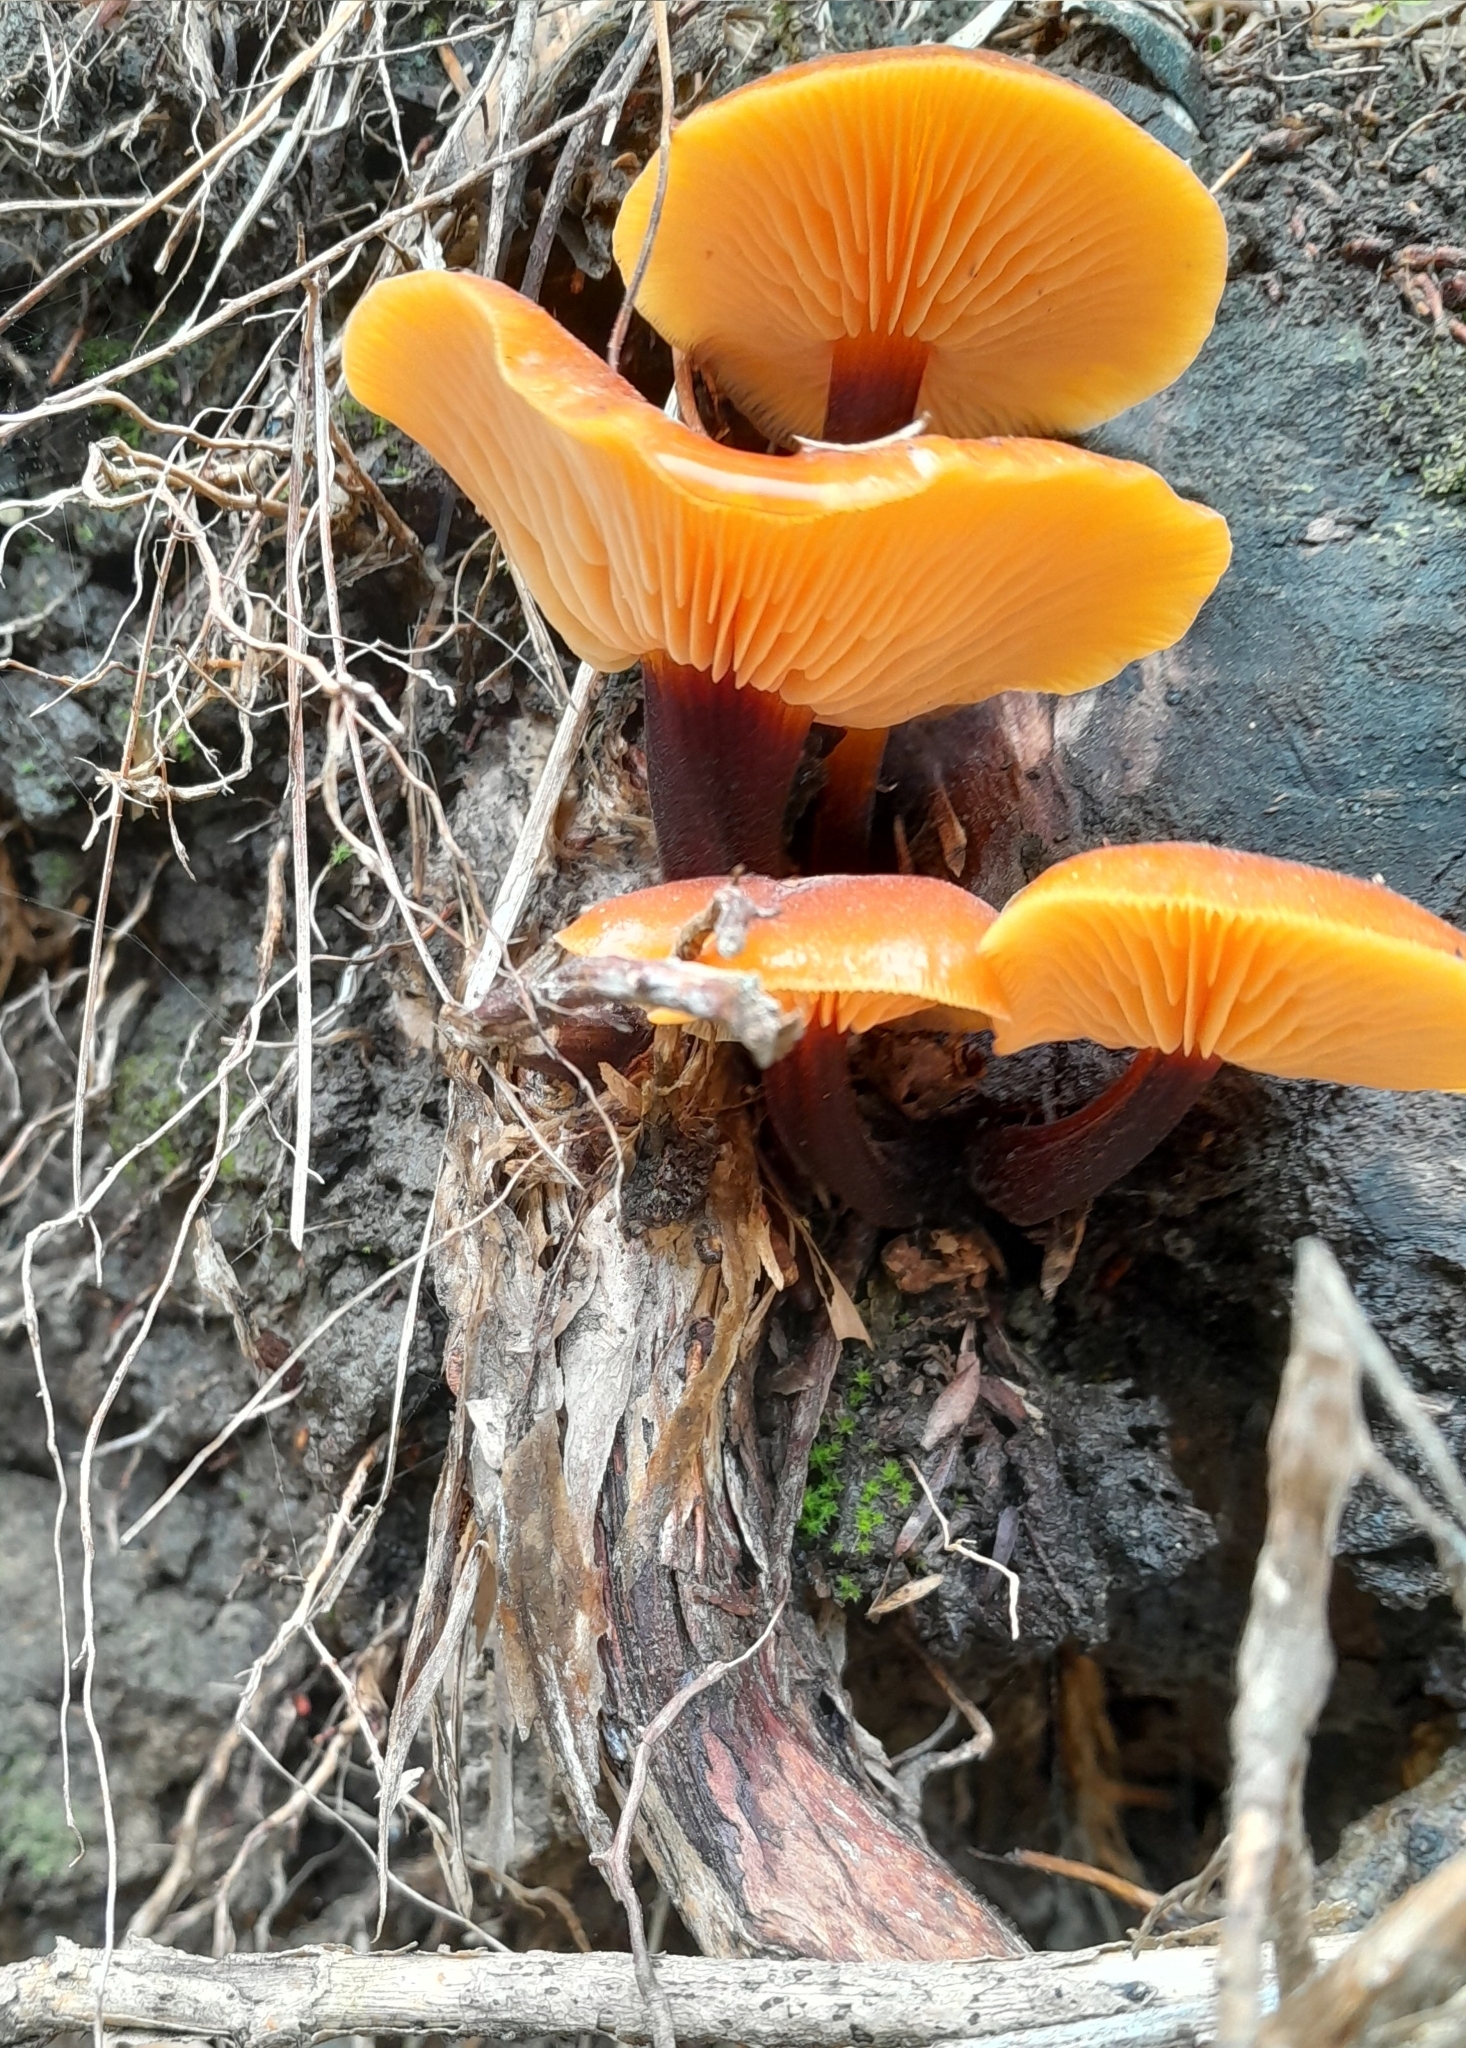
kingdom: Fungi
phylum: Basidiomycota
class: Agaricomycetes
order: Agaricales
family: Physalacriaceae
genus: Flammulina
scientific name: Flammulina velutipes
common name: Velvet shank
